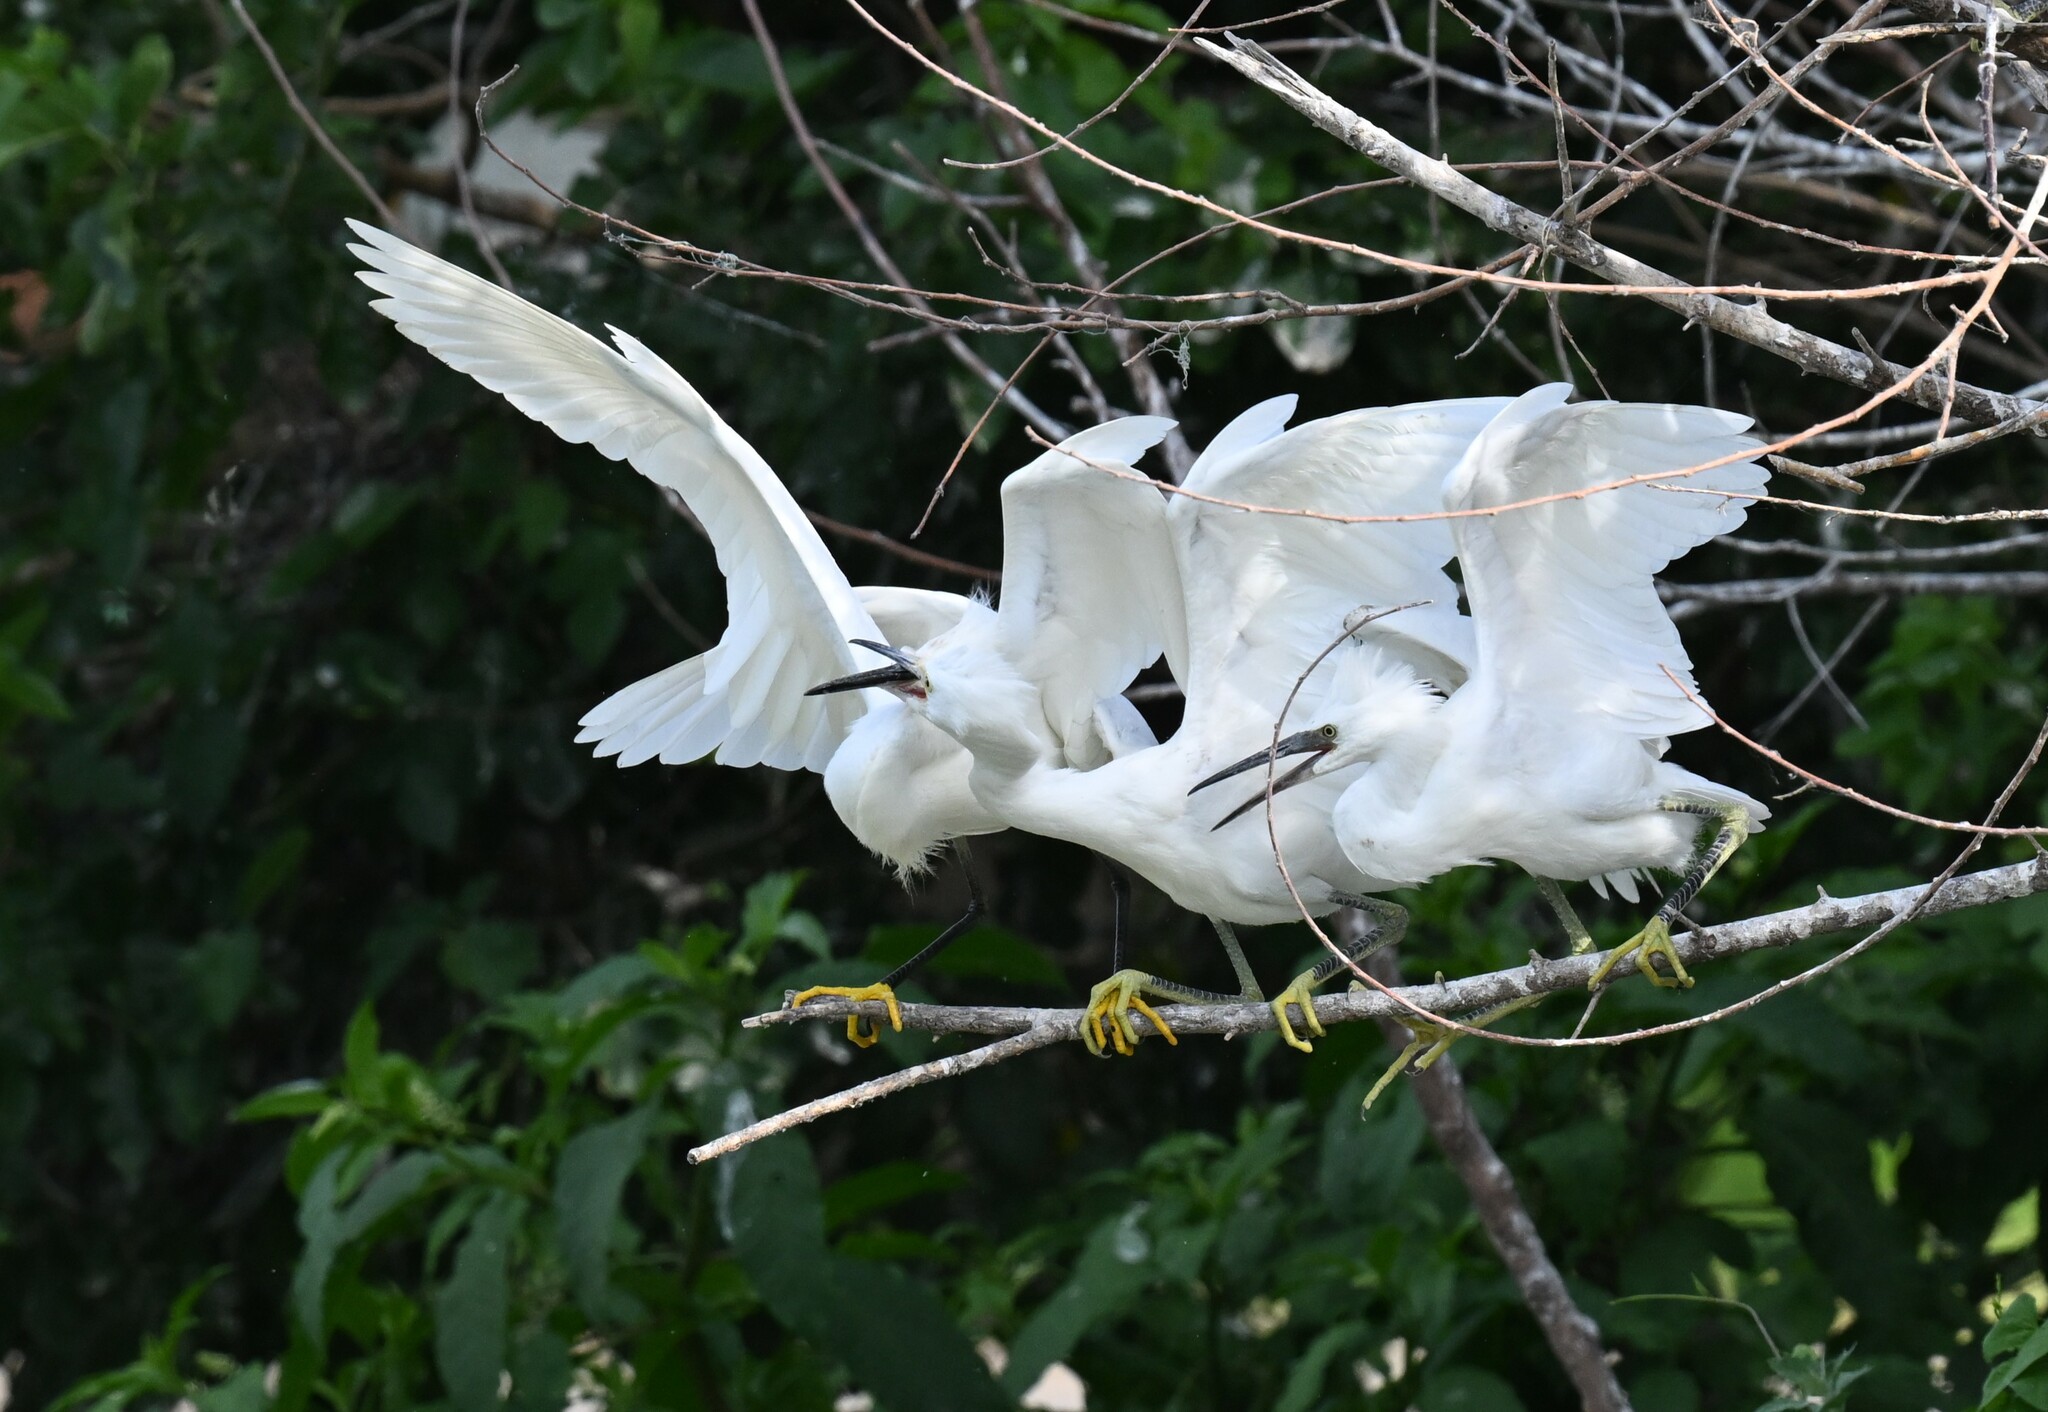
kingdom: Animalia
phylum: Chordata
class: Aves
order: Pelecaniformes
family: Ardeidae
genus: Egretta
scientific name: Egretta thula
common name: Snowy egret
